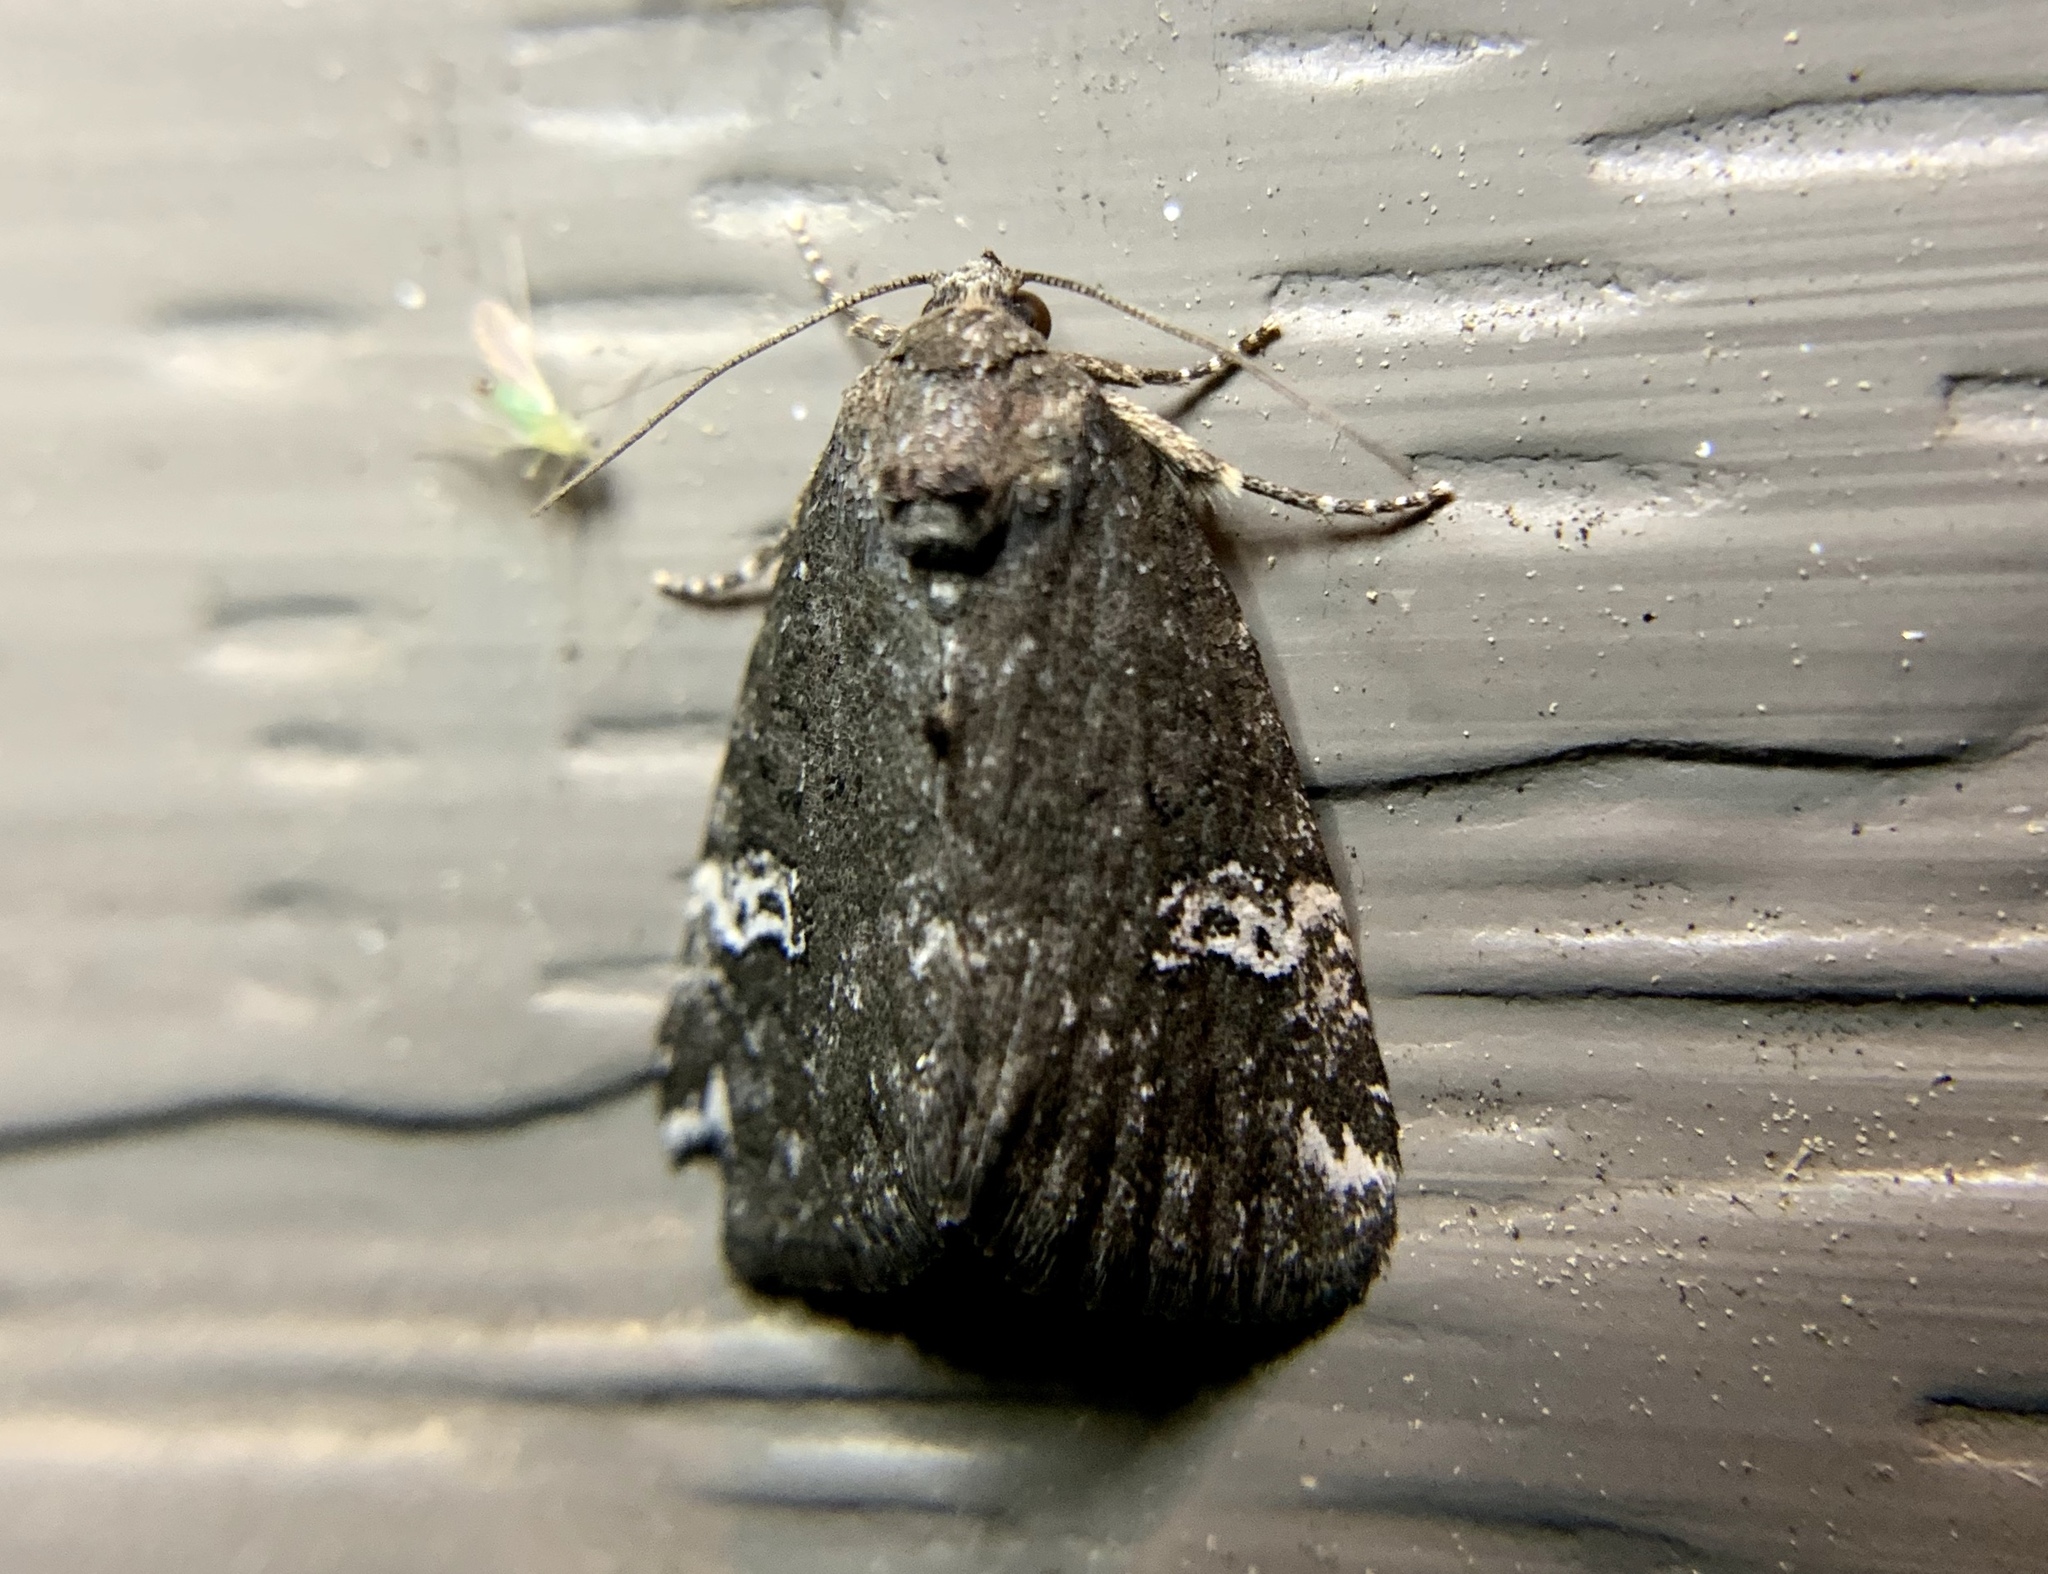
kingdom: Animalia
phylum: Arthropoda
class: Insecta
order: Lepidoptera
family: Noctuidae
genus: Anterastria
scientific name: Anterastria teratophora
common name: Gray marvel moth
